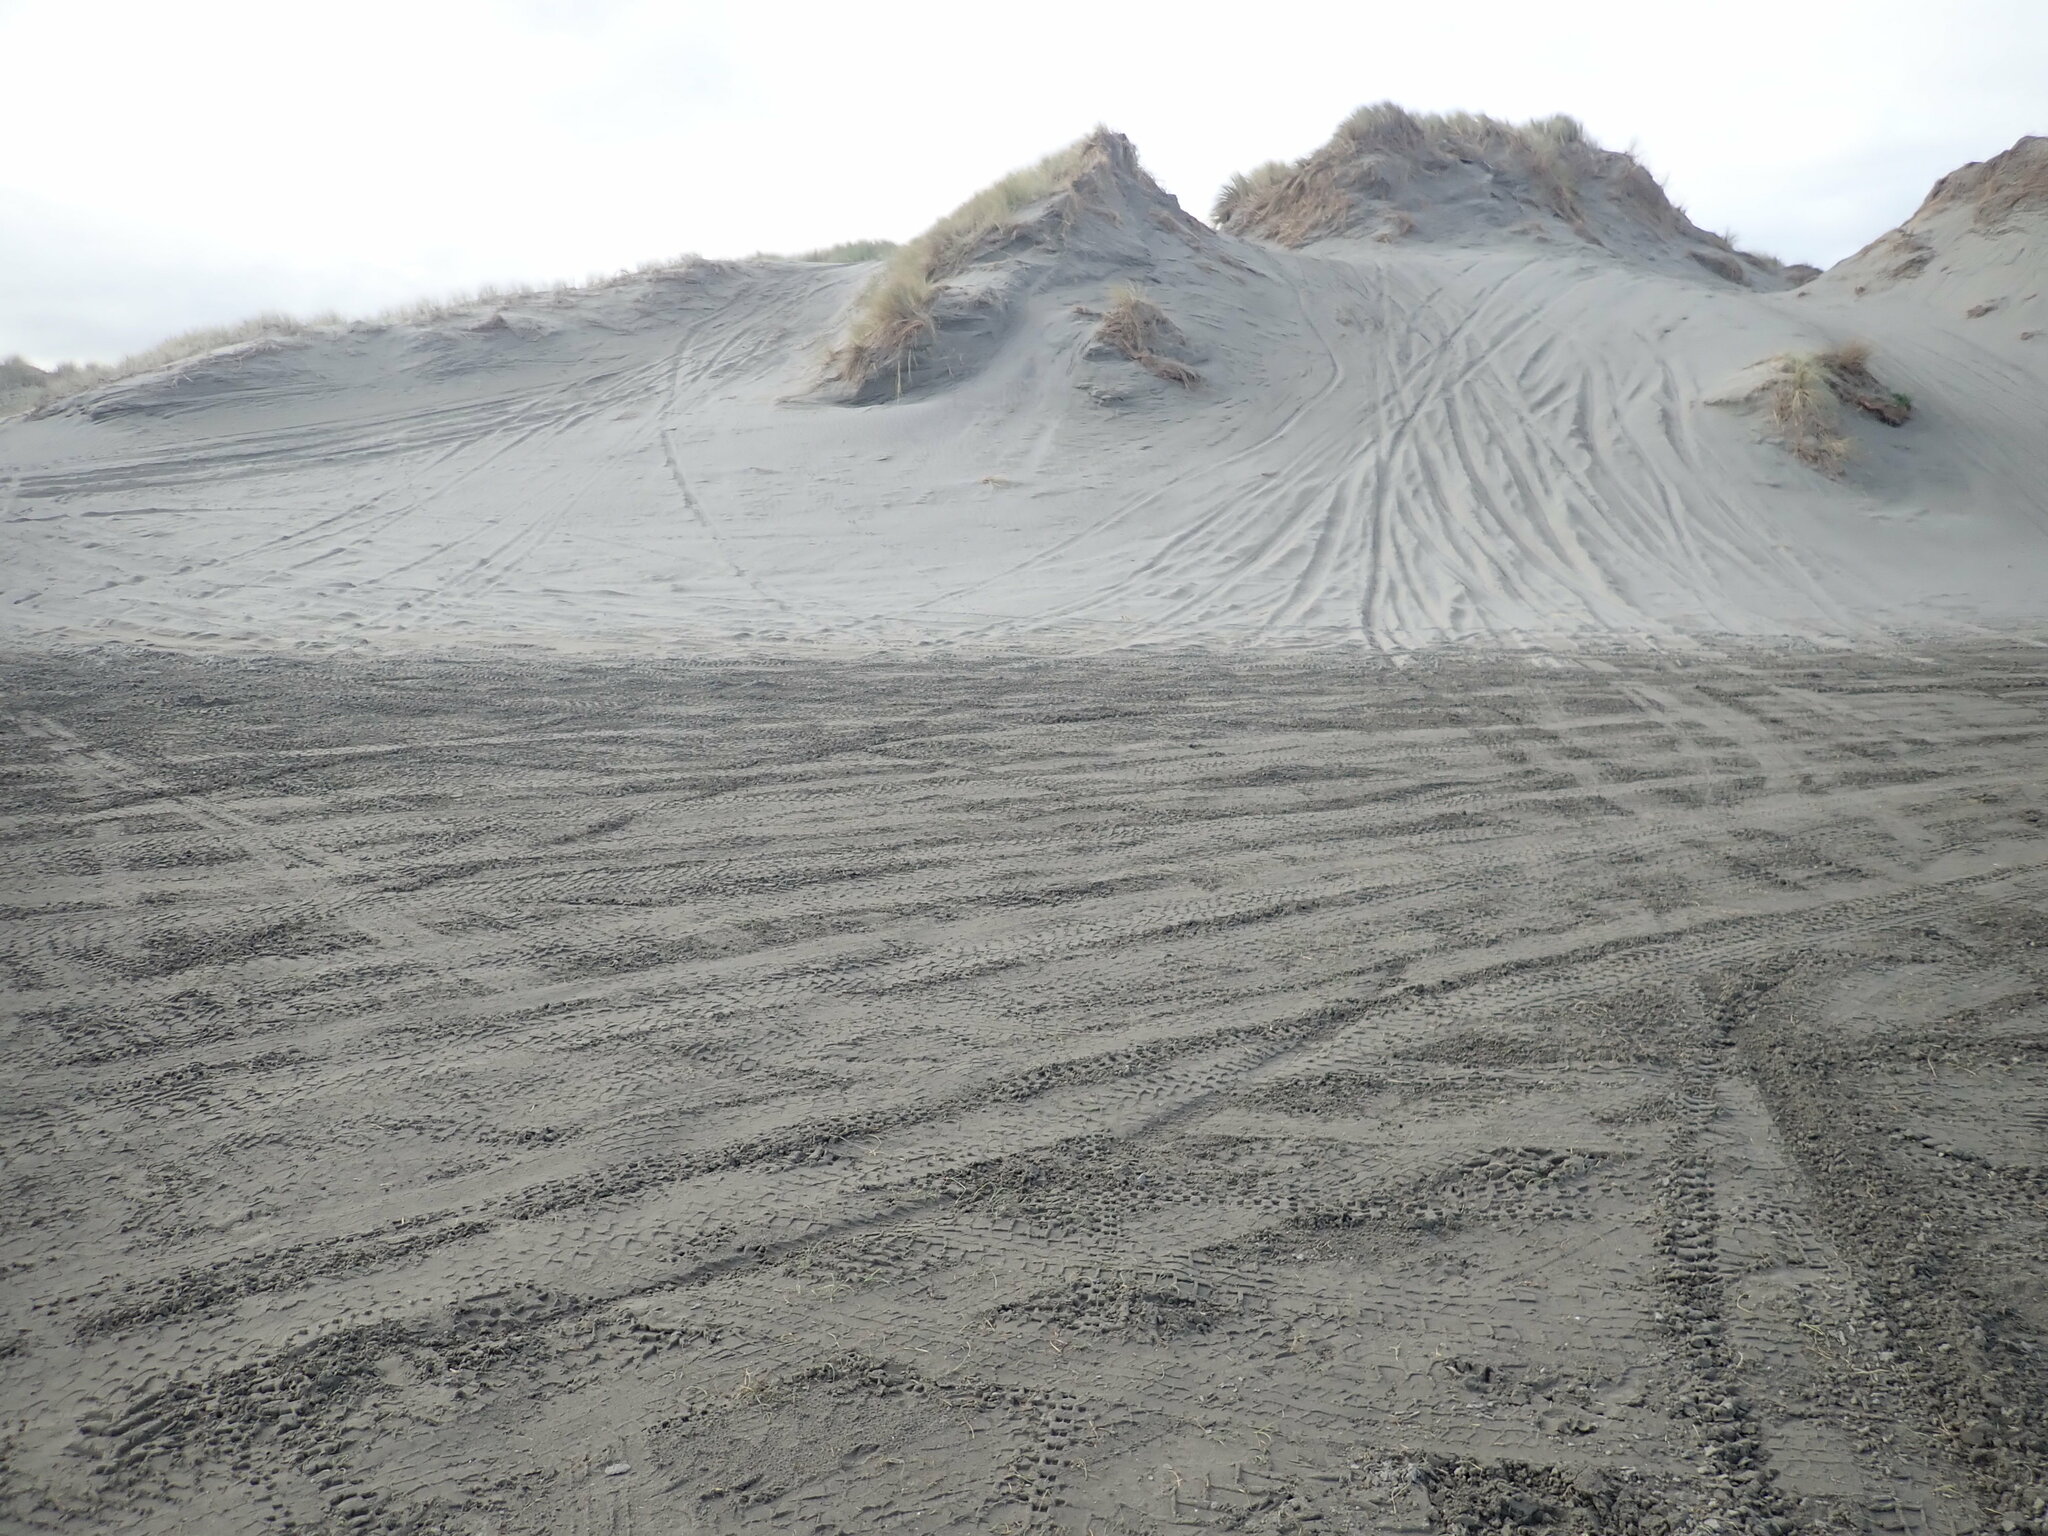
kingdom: Plantae
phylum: Tracheophyta
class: Liliopsida
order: Poales
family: Cyperaceae
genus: Carex
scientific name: Carex pumila
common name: Dwarf sedge
